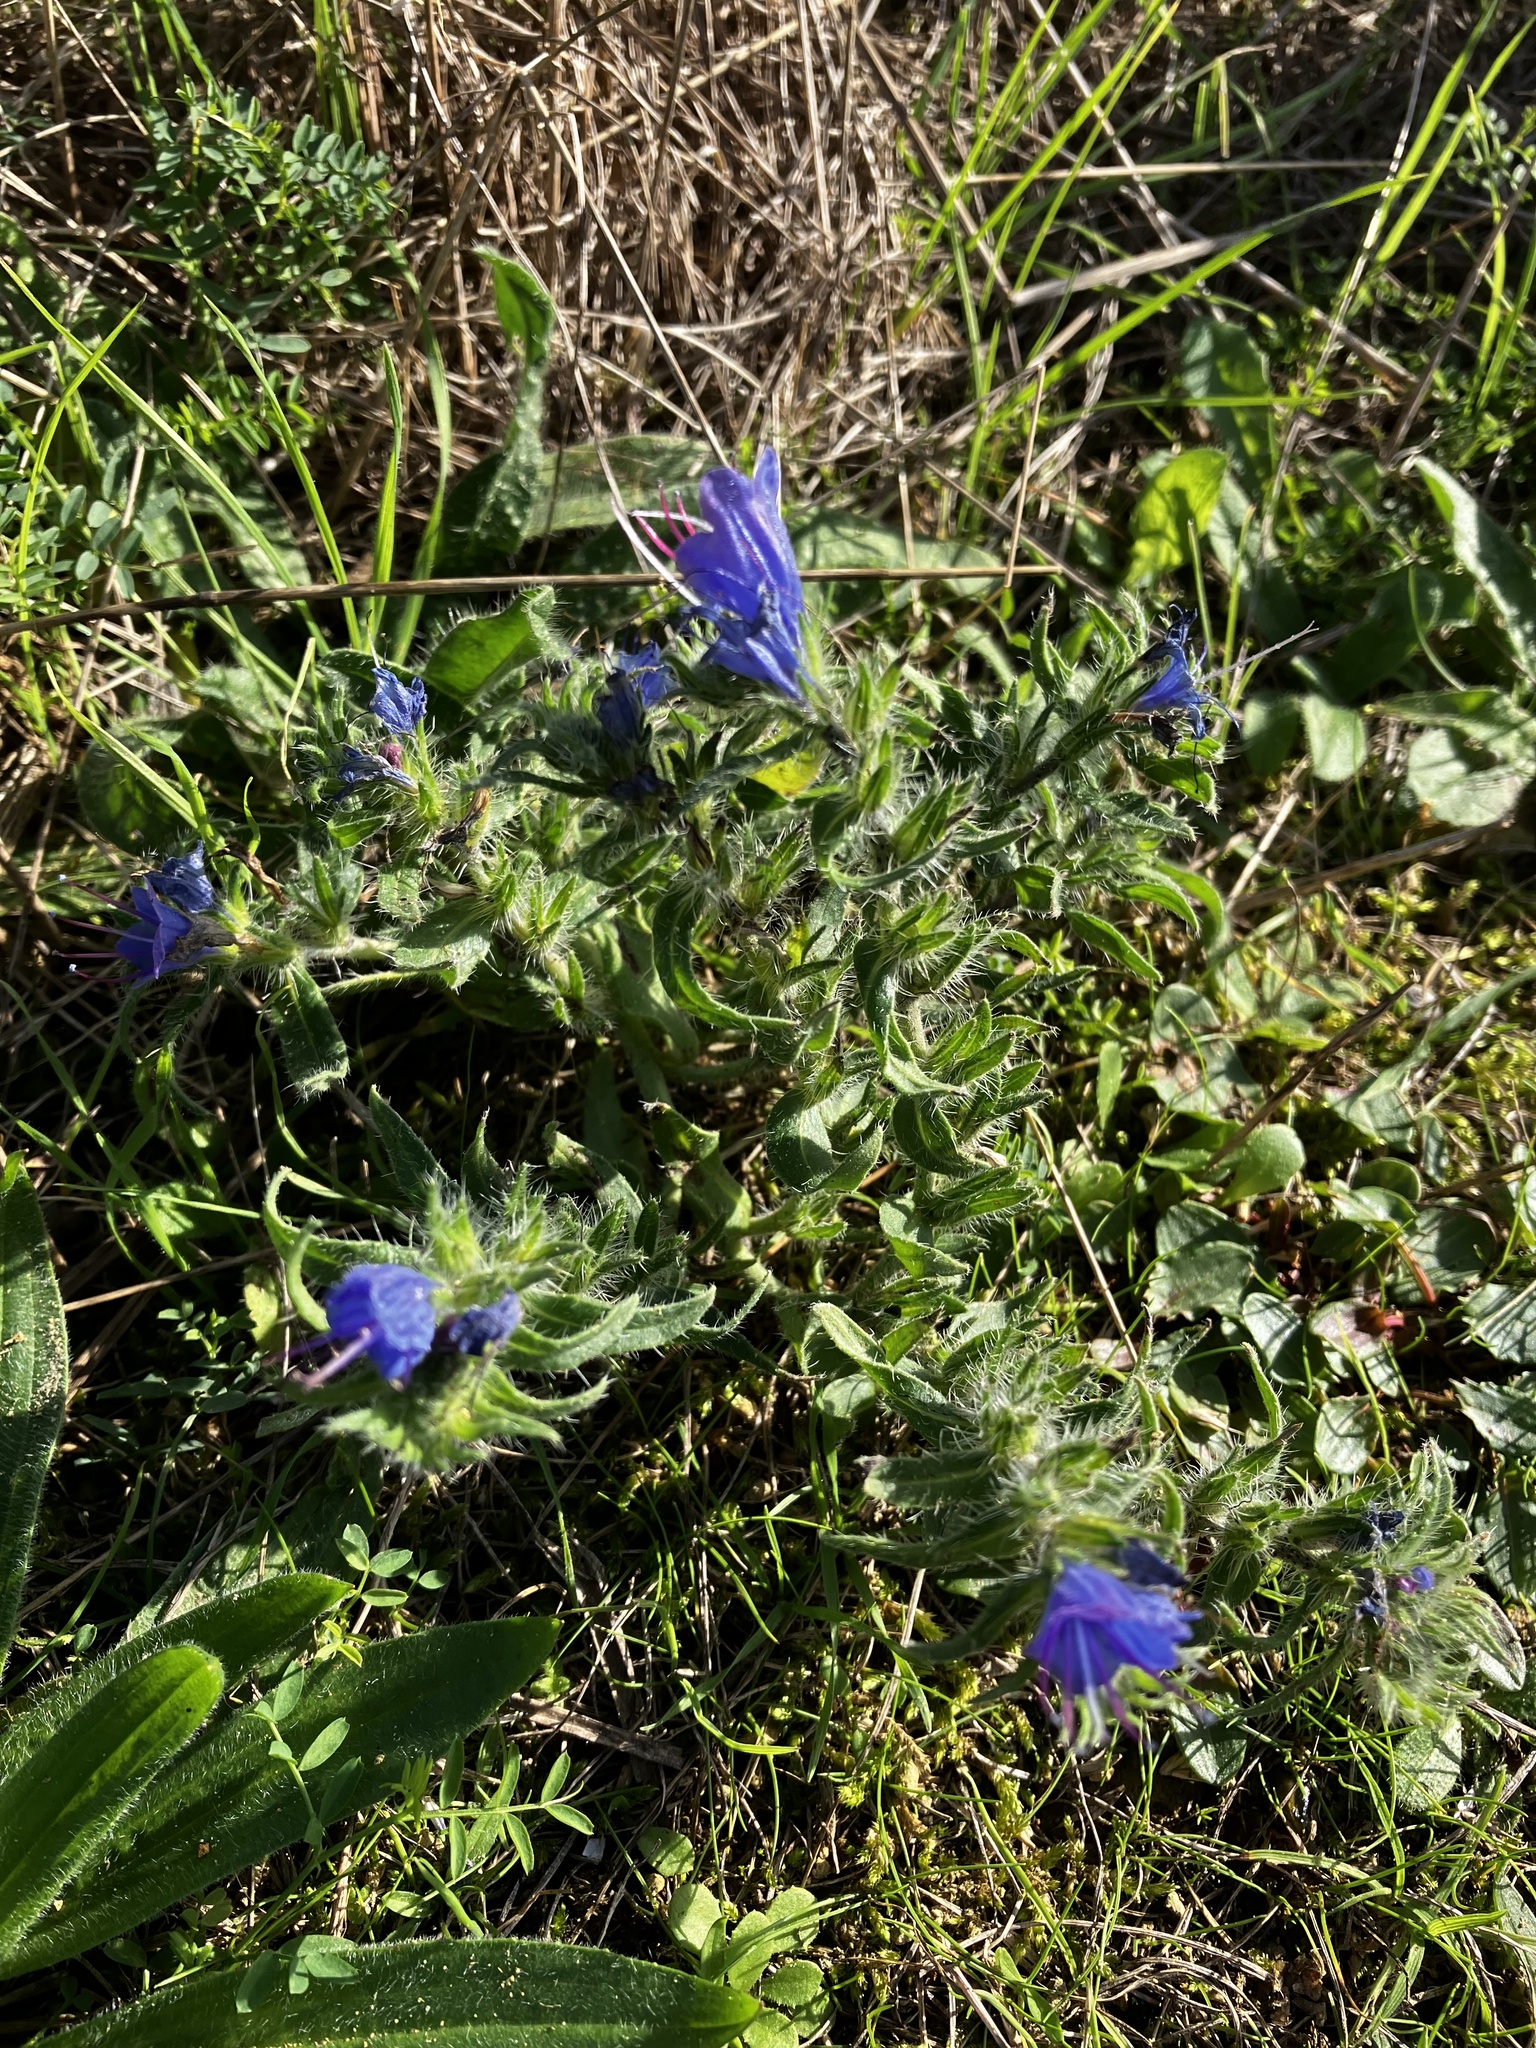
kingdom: Plantae
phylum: Tracheophyta
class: Magnoliopsida
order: Boraginales
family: Boraginaceae
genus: Echium
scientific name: Echium vulgare
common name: Common viper's bugloss
